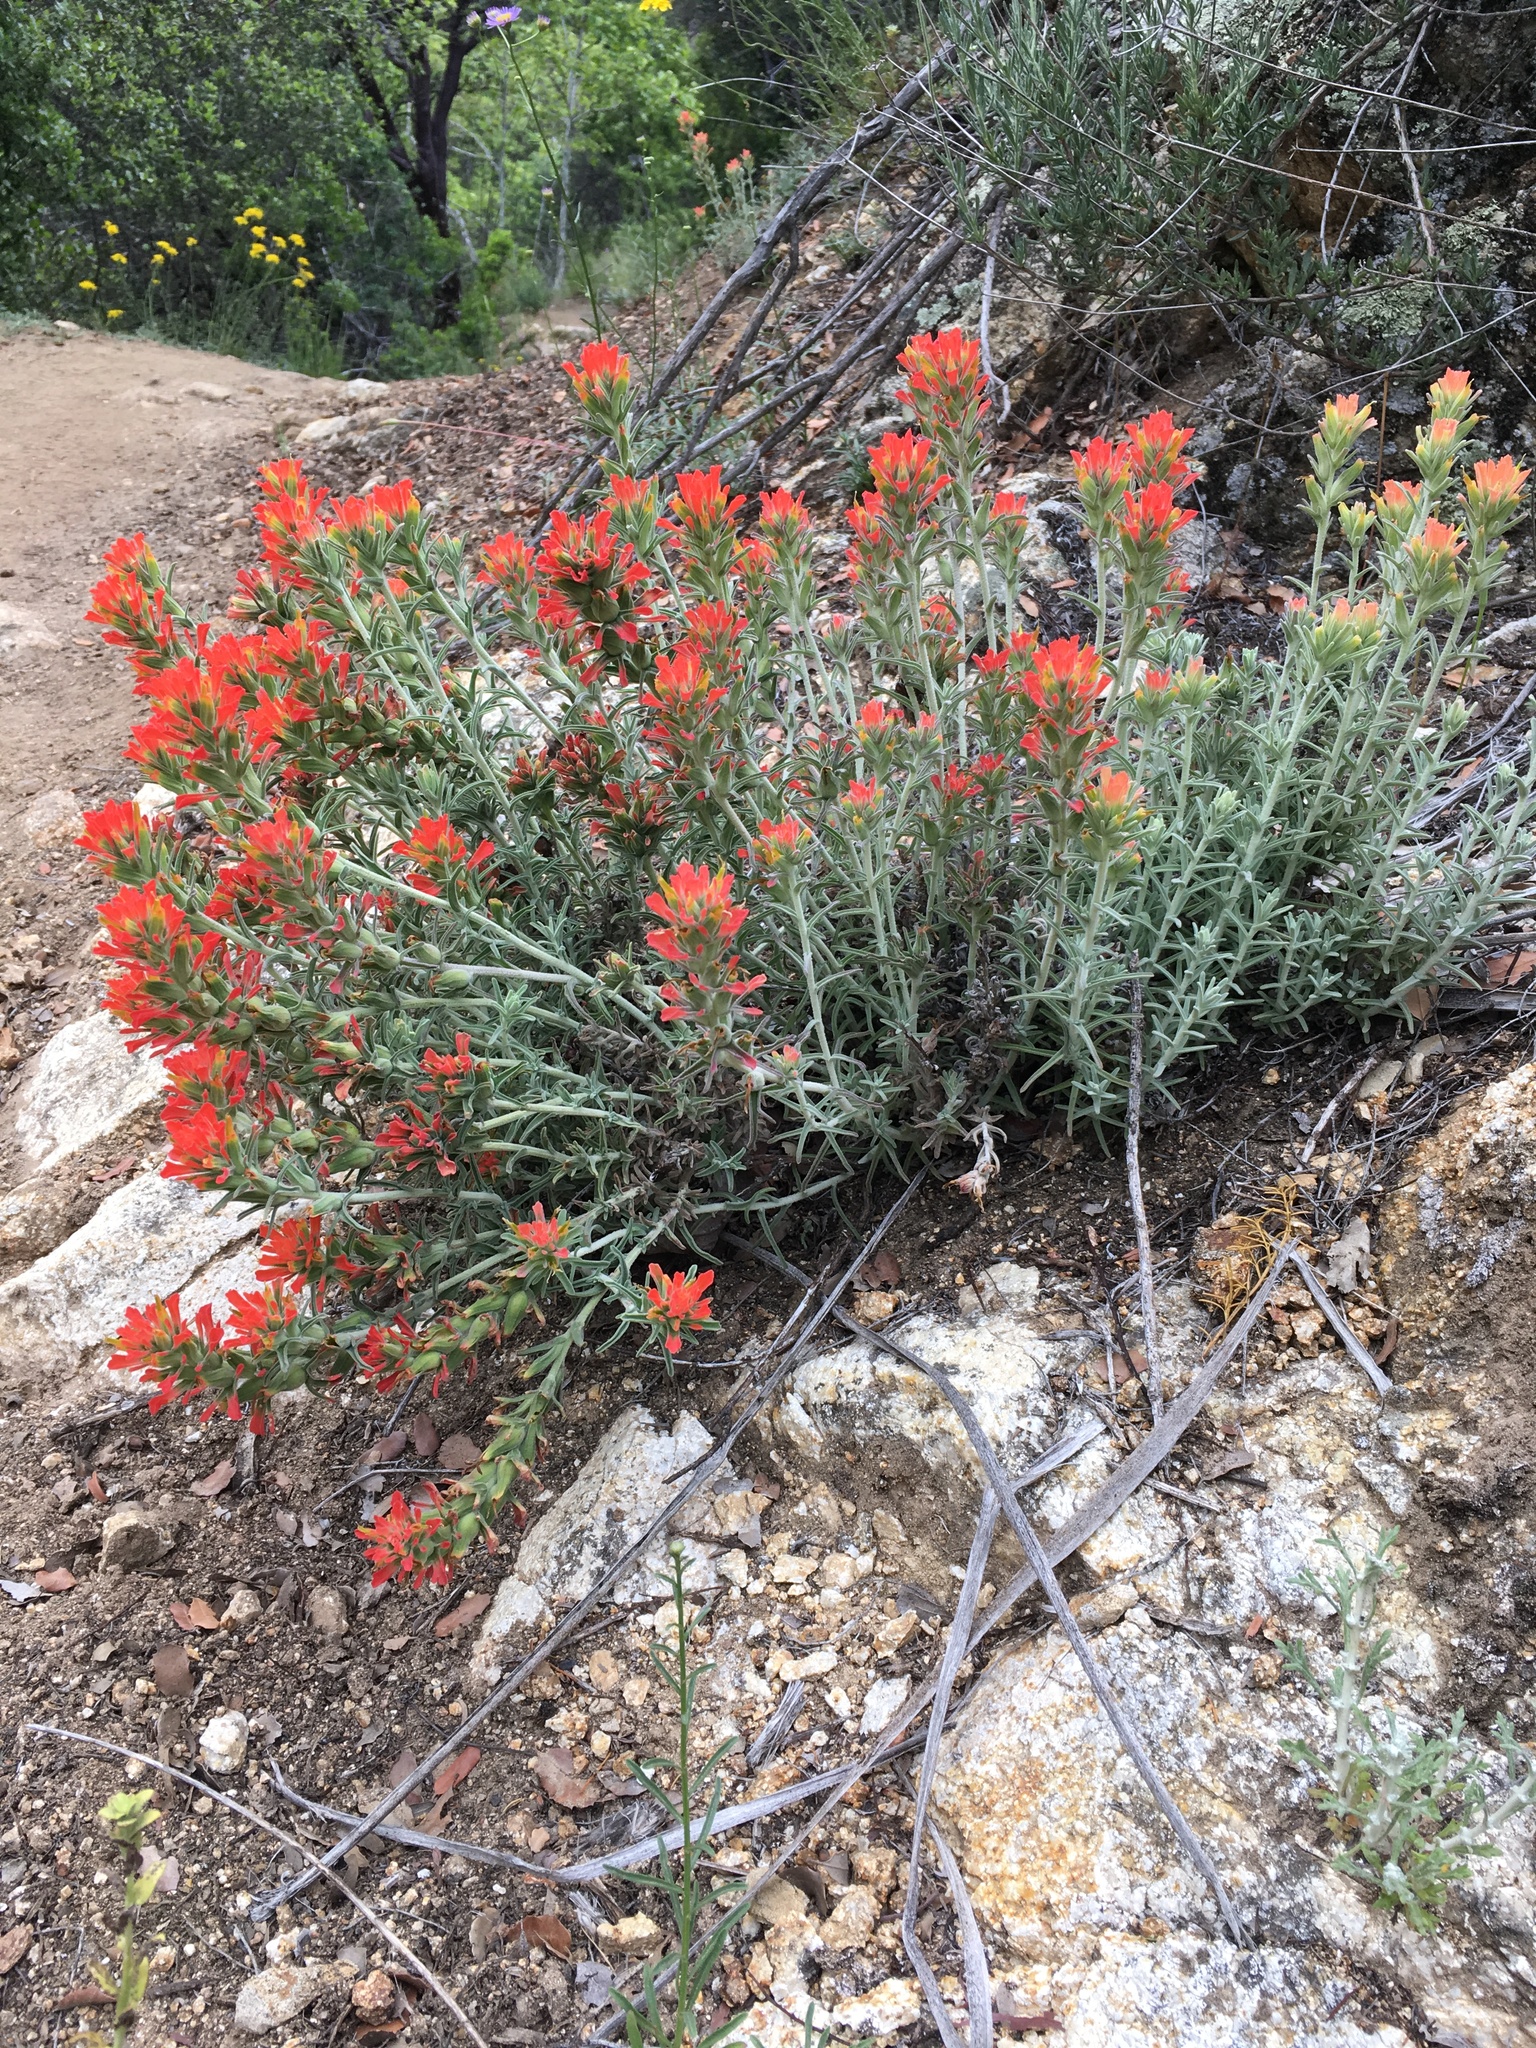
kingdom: Plantae
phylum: Tracheophyta
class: Magnoliopsida
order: Lamiales
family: Orobanchaceae
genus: Castilleja
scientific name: Castilleja foliolosa
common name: Woolly indian paintbrush
